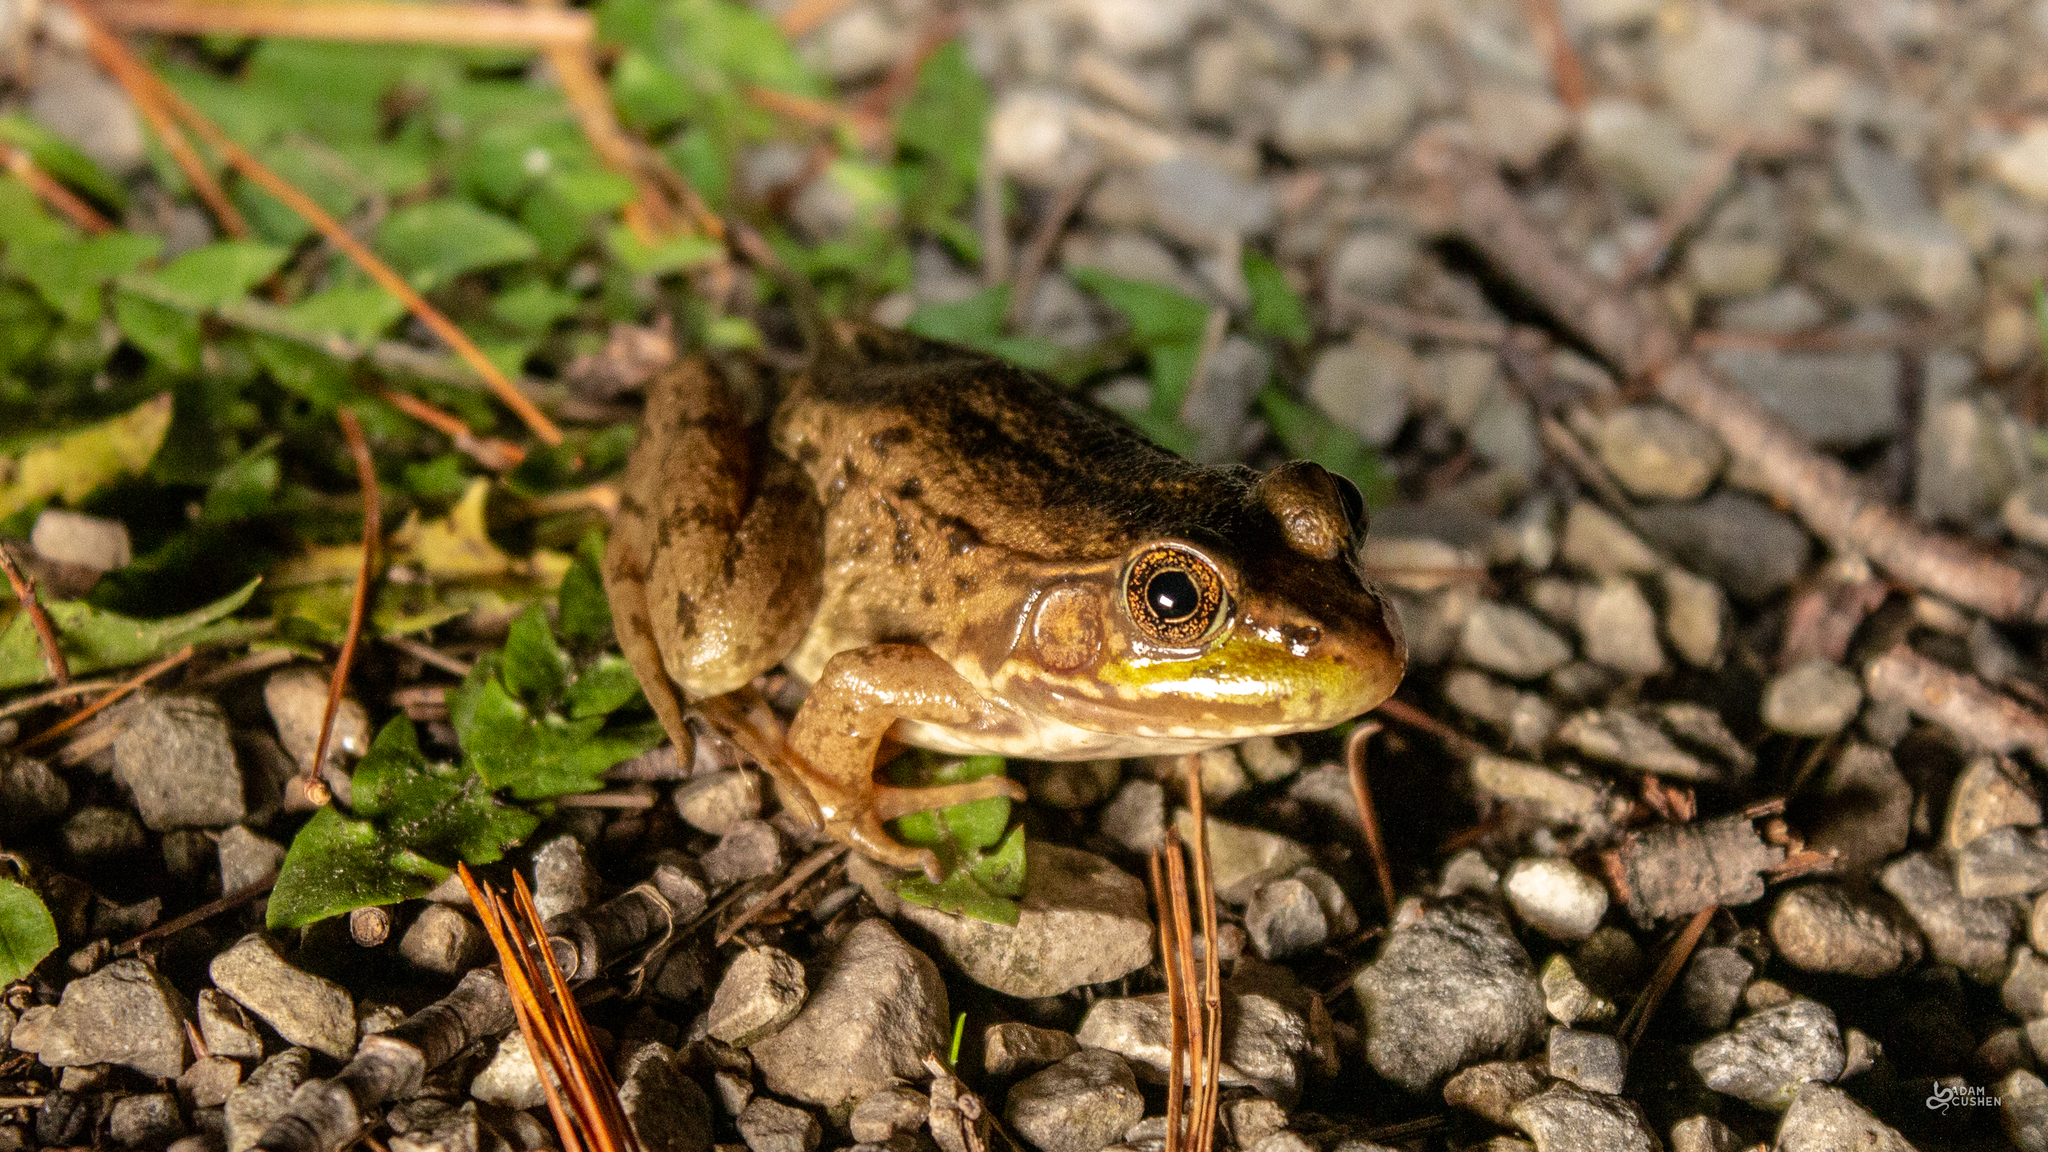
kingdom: Animalia
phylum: Chordata
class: Amphibia
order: Anura
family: Ranidae
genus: Lithobates
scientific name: Lithobates clamitans
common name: Green frog
